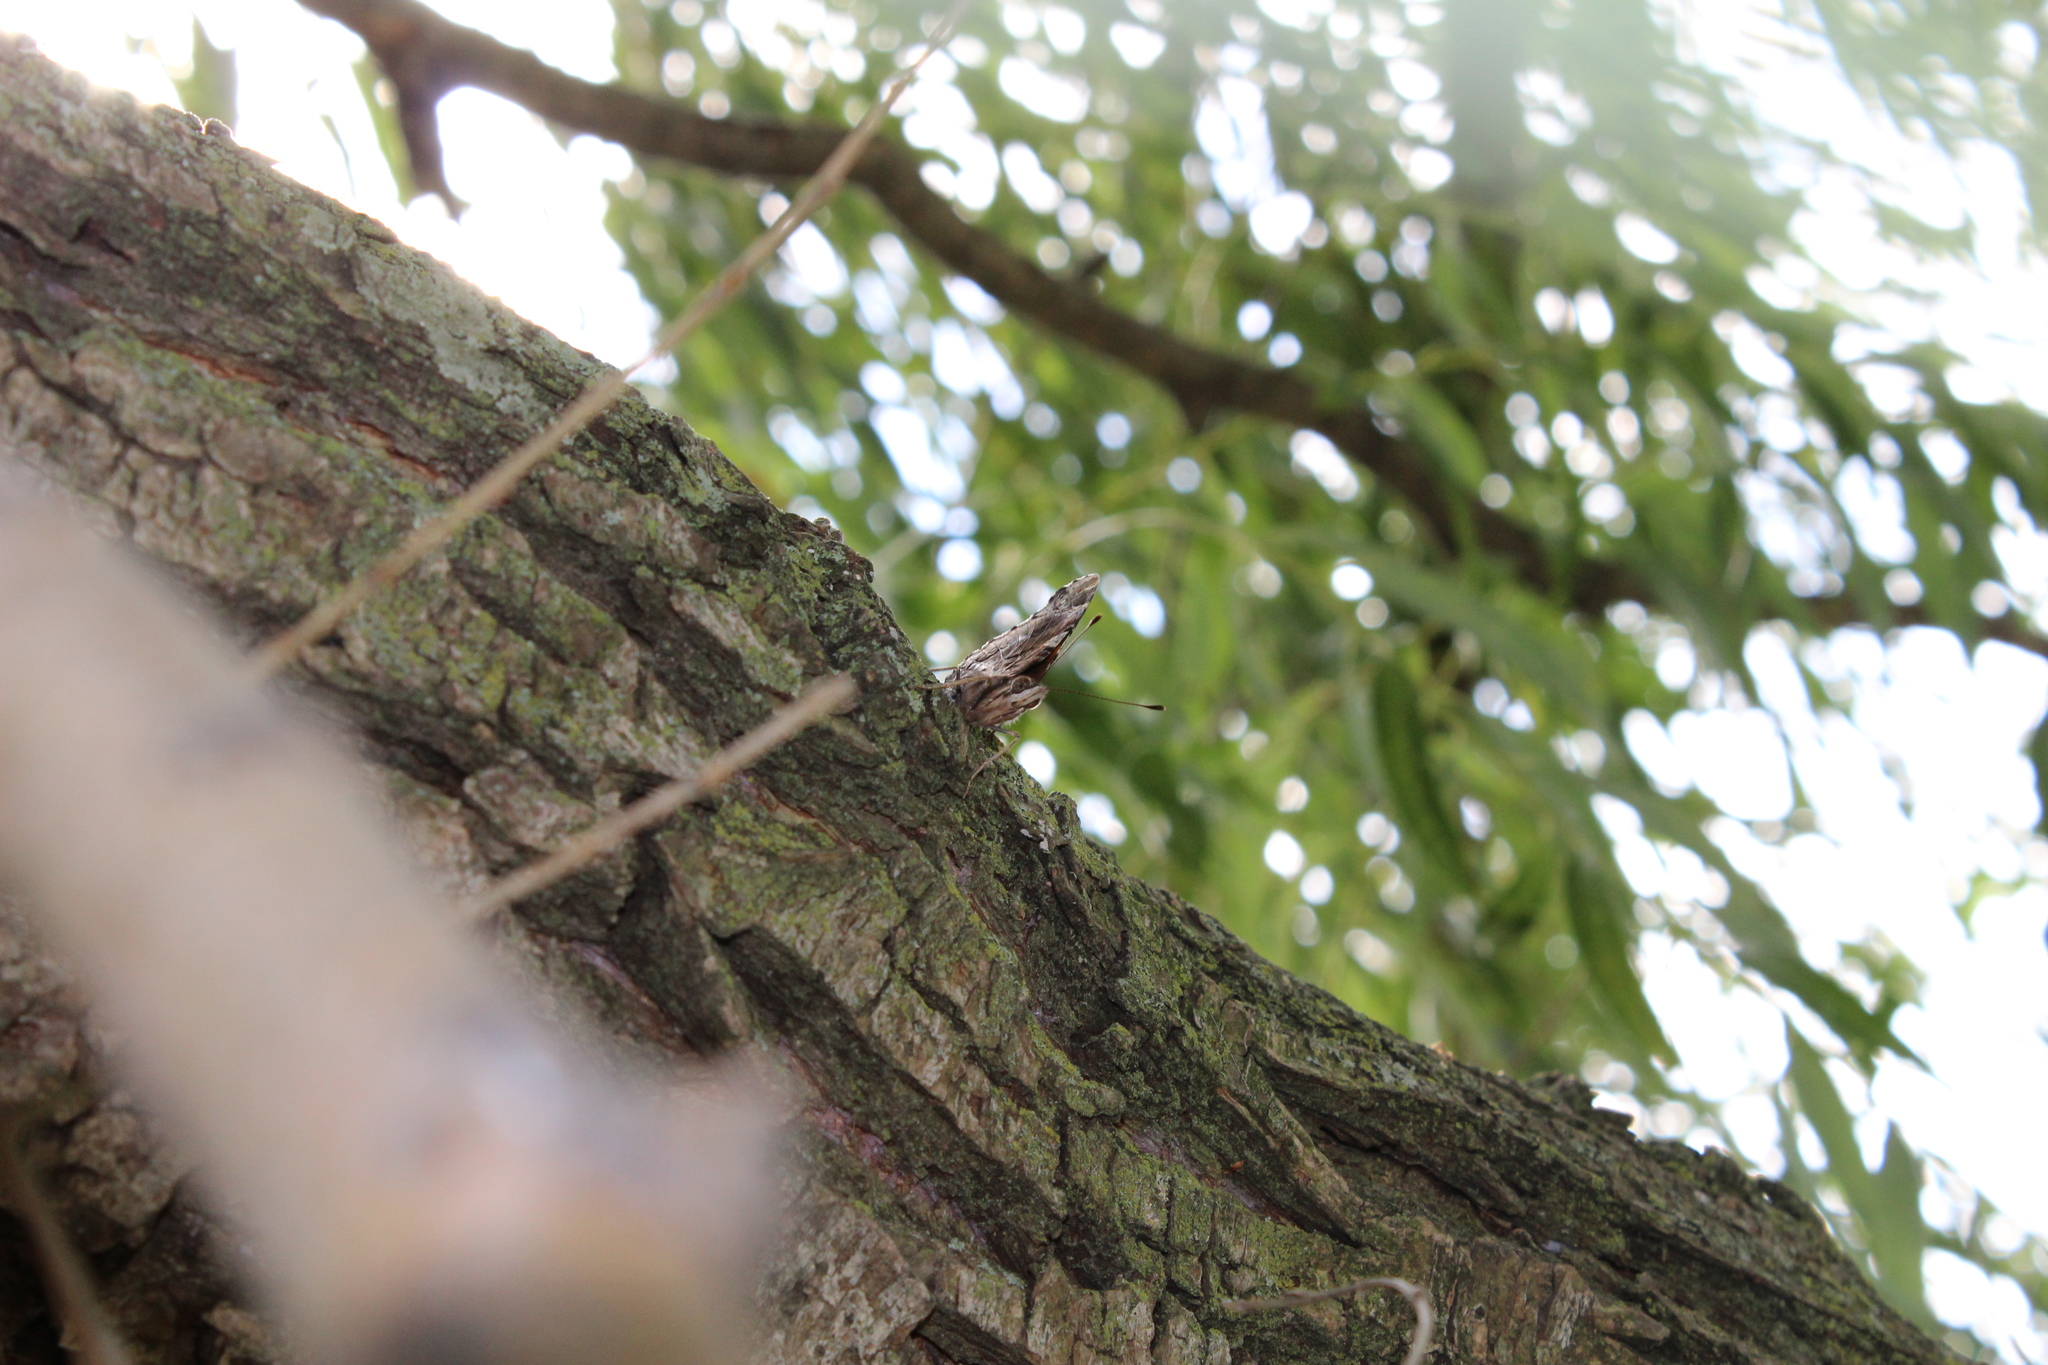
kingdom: Animalia
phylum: Arthropoda
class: Insecta
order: Lepidoptera
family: Nymphalidae
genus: Vanessa
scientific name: Vanessa atalanta
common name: Red admiral
